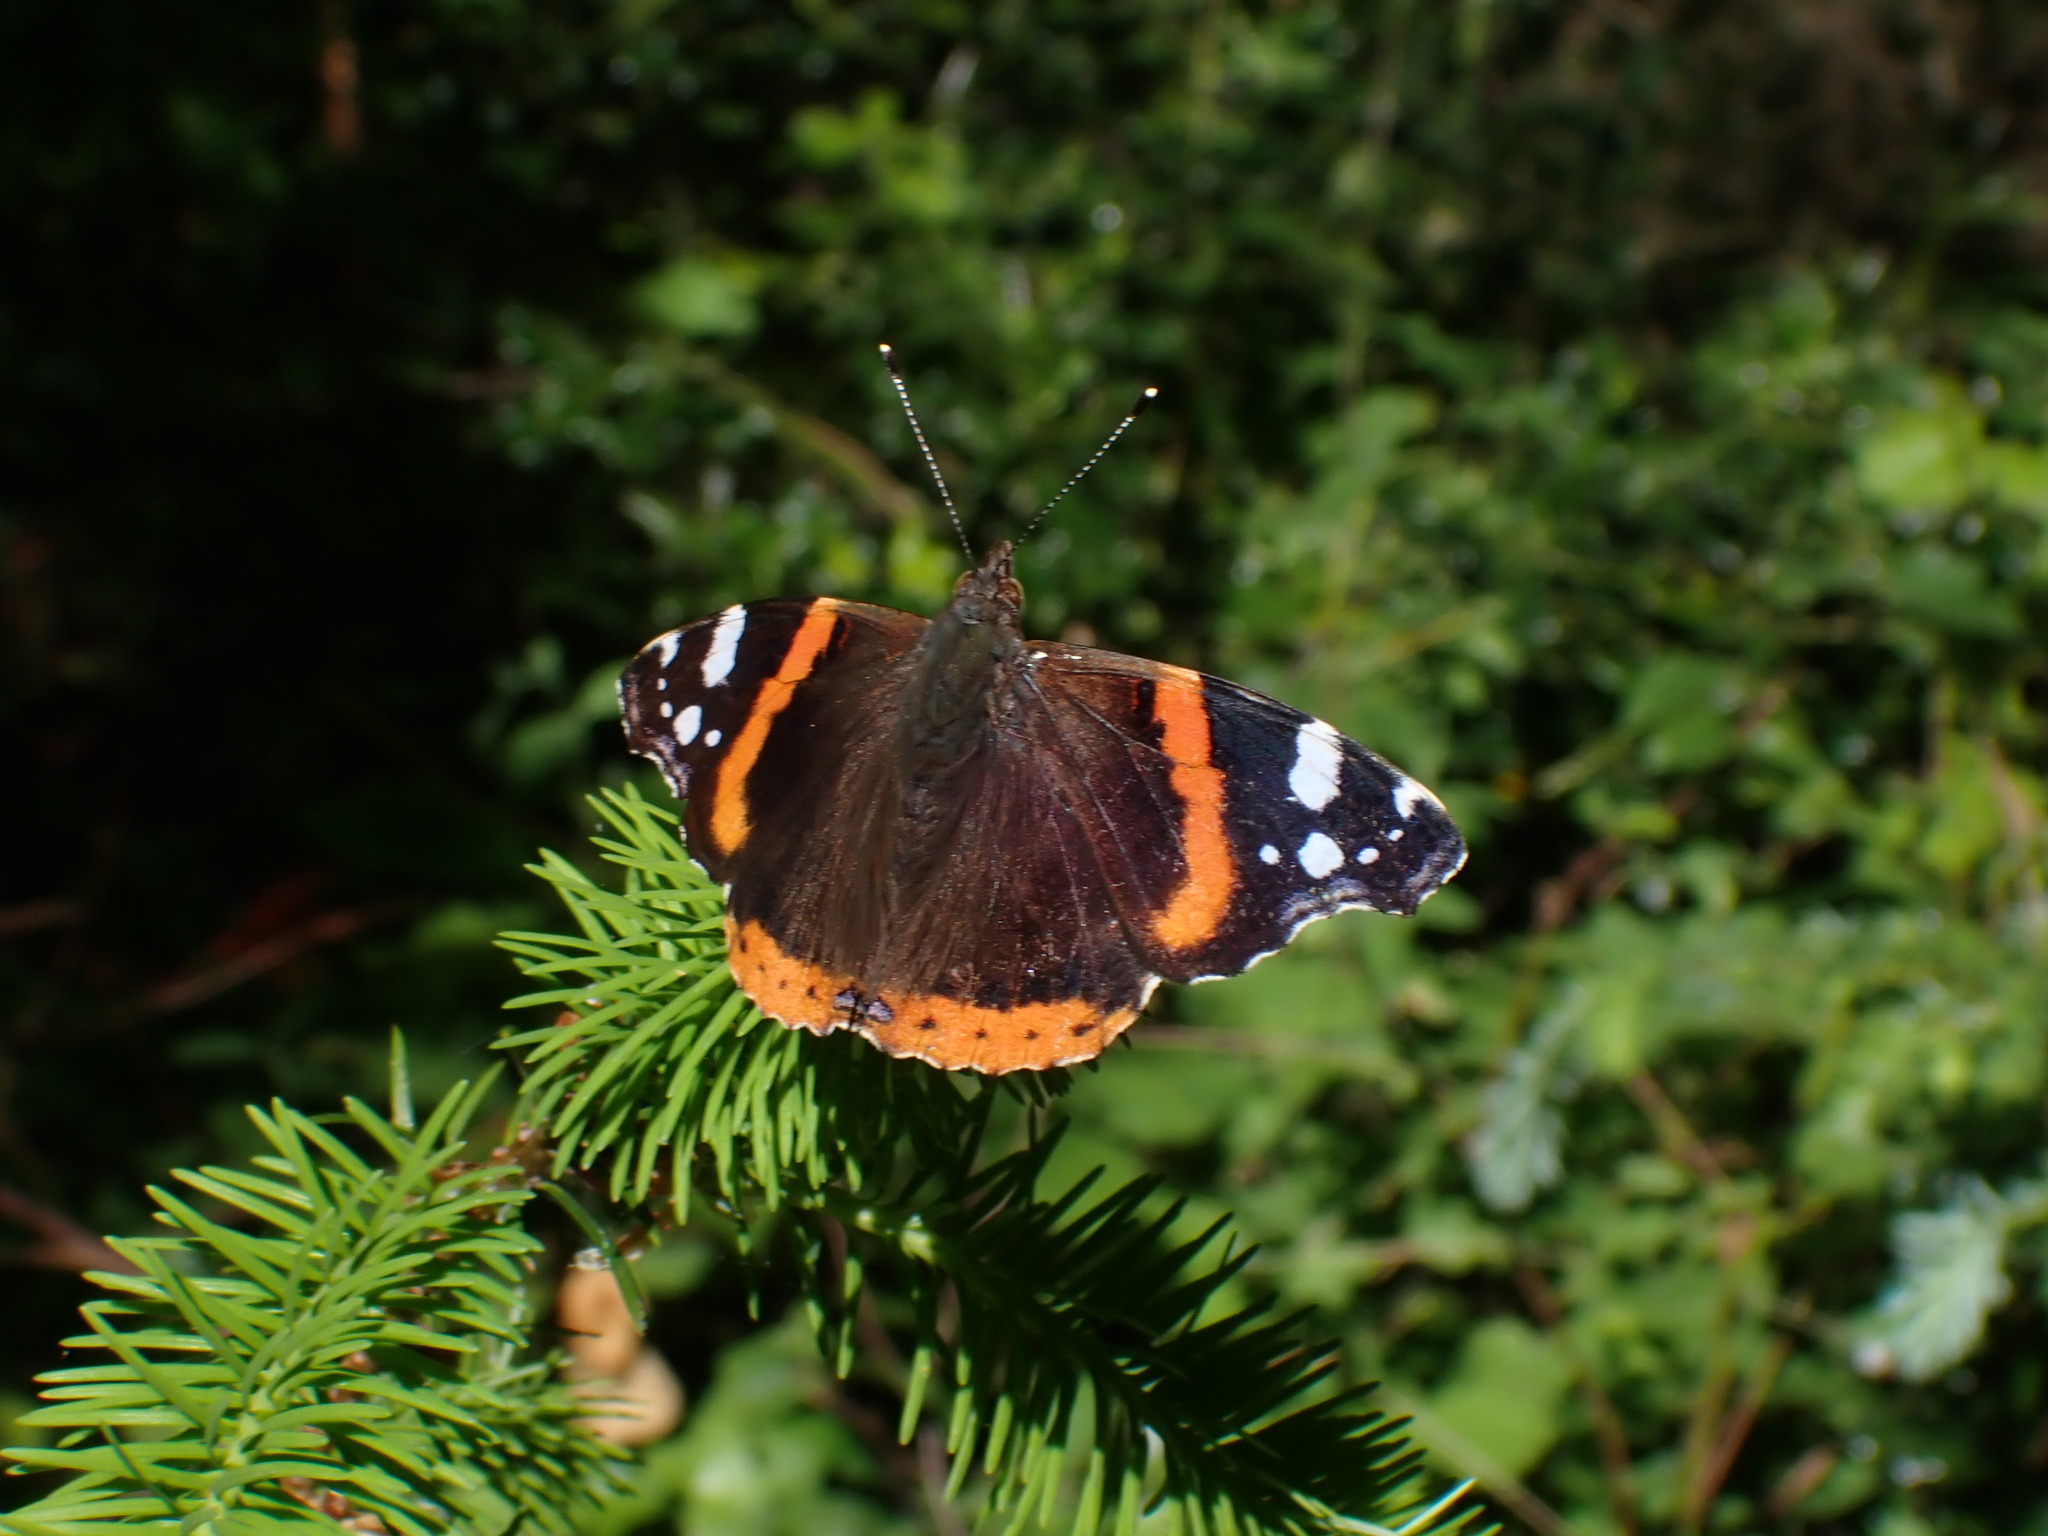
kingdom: Animalia
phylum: Arthropoda
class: Insecta
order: Lepidoptera
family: Nymphalidae
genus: Vanessa
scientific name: Vanessa atalanta
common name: Red admiral
